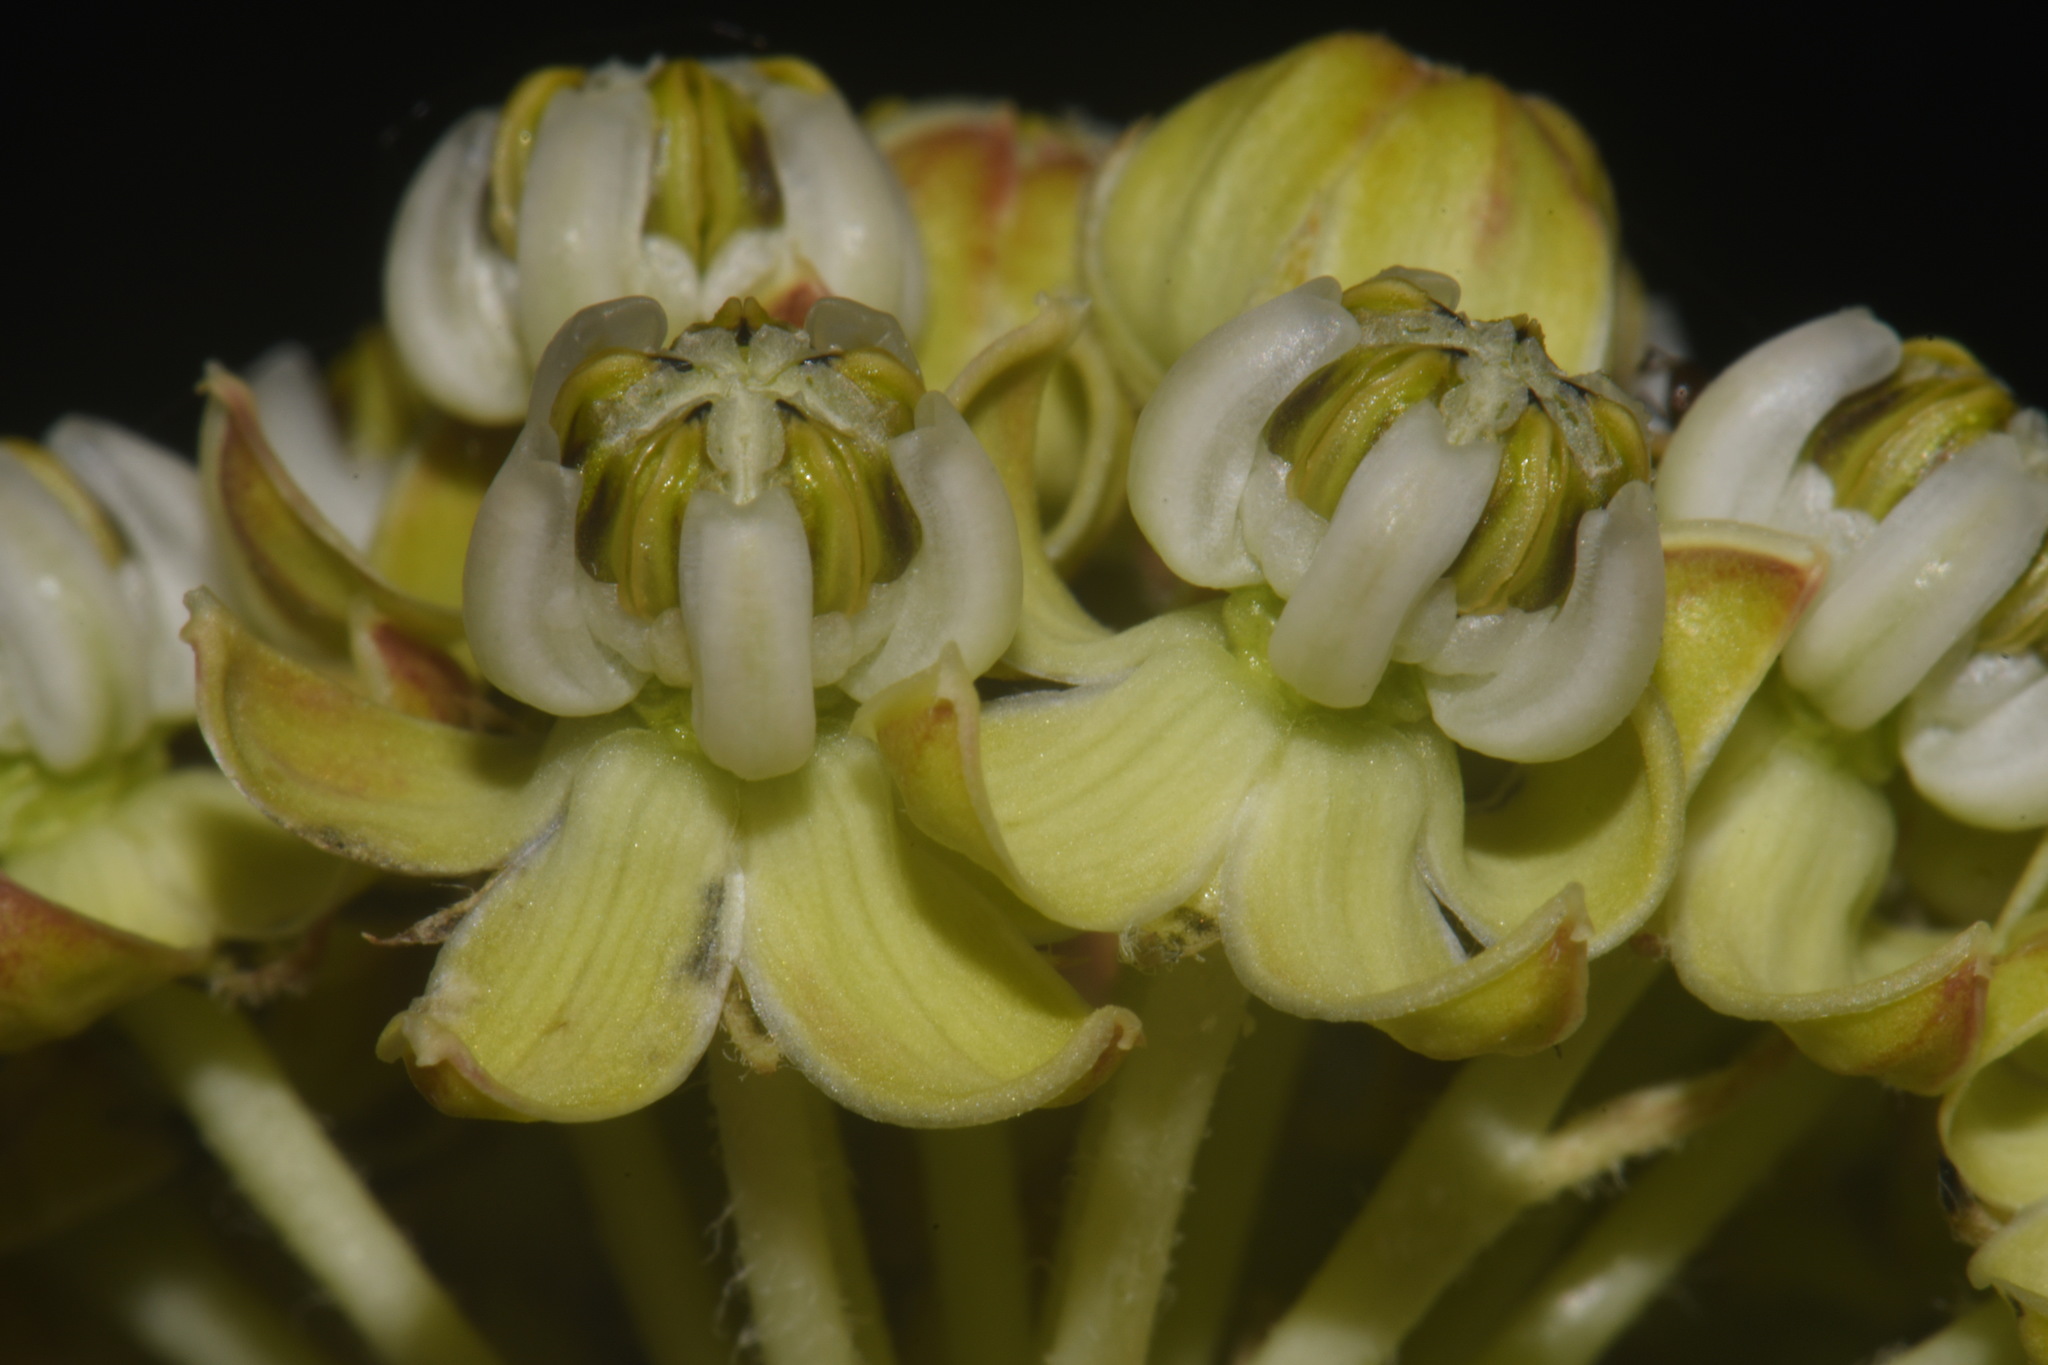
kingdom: Plantae
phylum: Tracheophyta
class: Magnoliopsida
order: Gentianales
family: Apocynaceae
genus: Asclepias
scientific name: Asclepias engelmanniana
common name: Engelmann's milkweed
